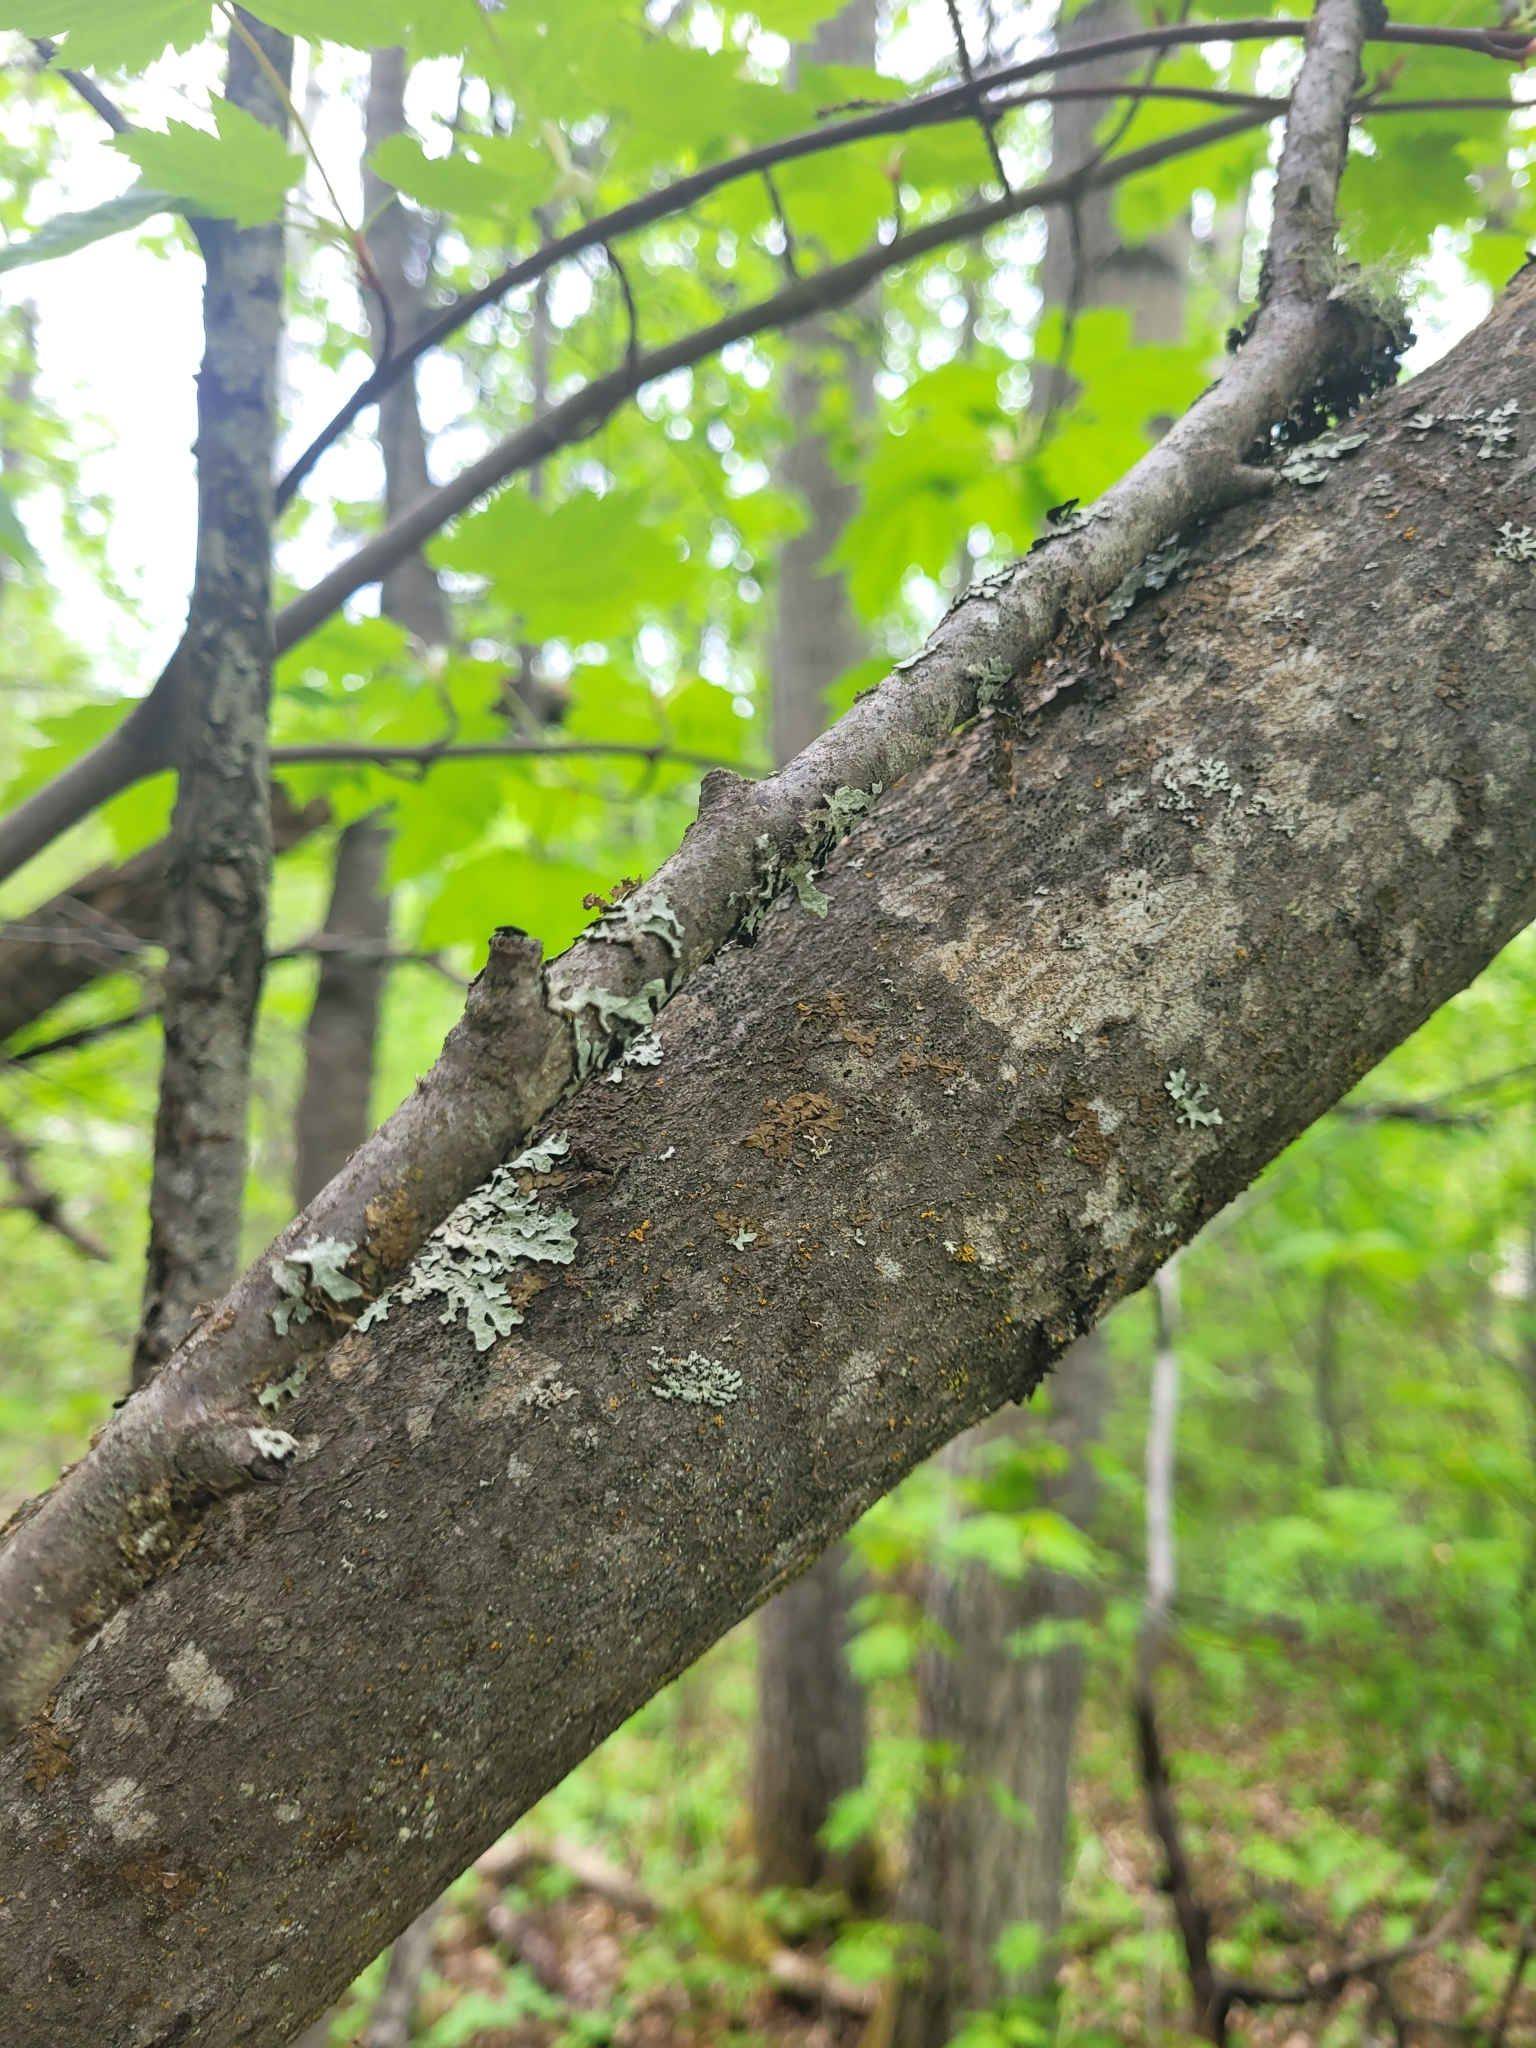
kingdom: Plantae
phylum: Tracheophyta
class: Magnoliopsida
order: Sapindales
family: Sapindaceae
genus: Acer
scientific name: Acer glabrum
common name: Rocky mountain maple
